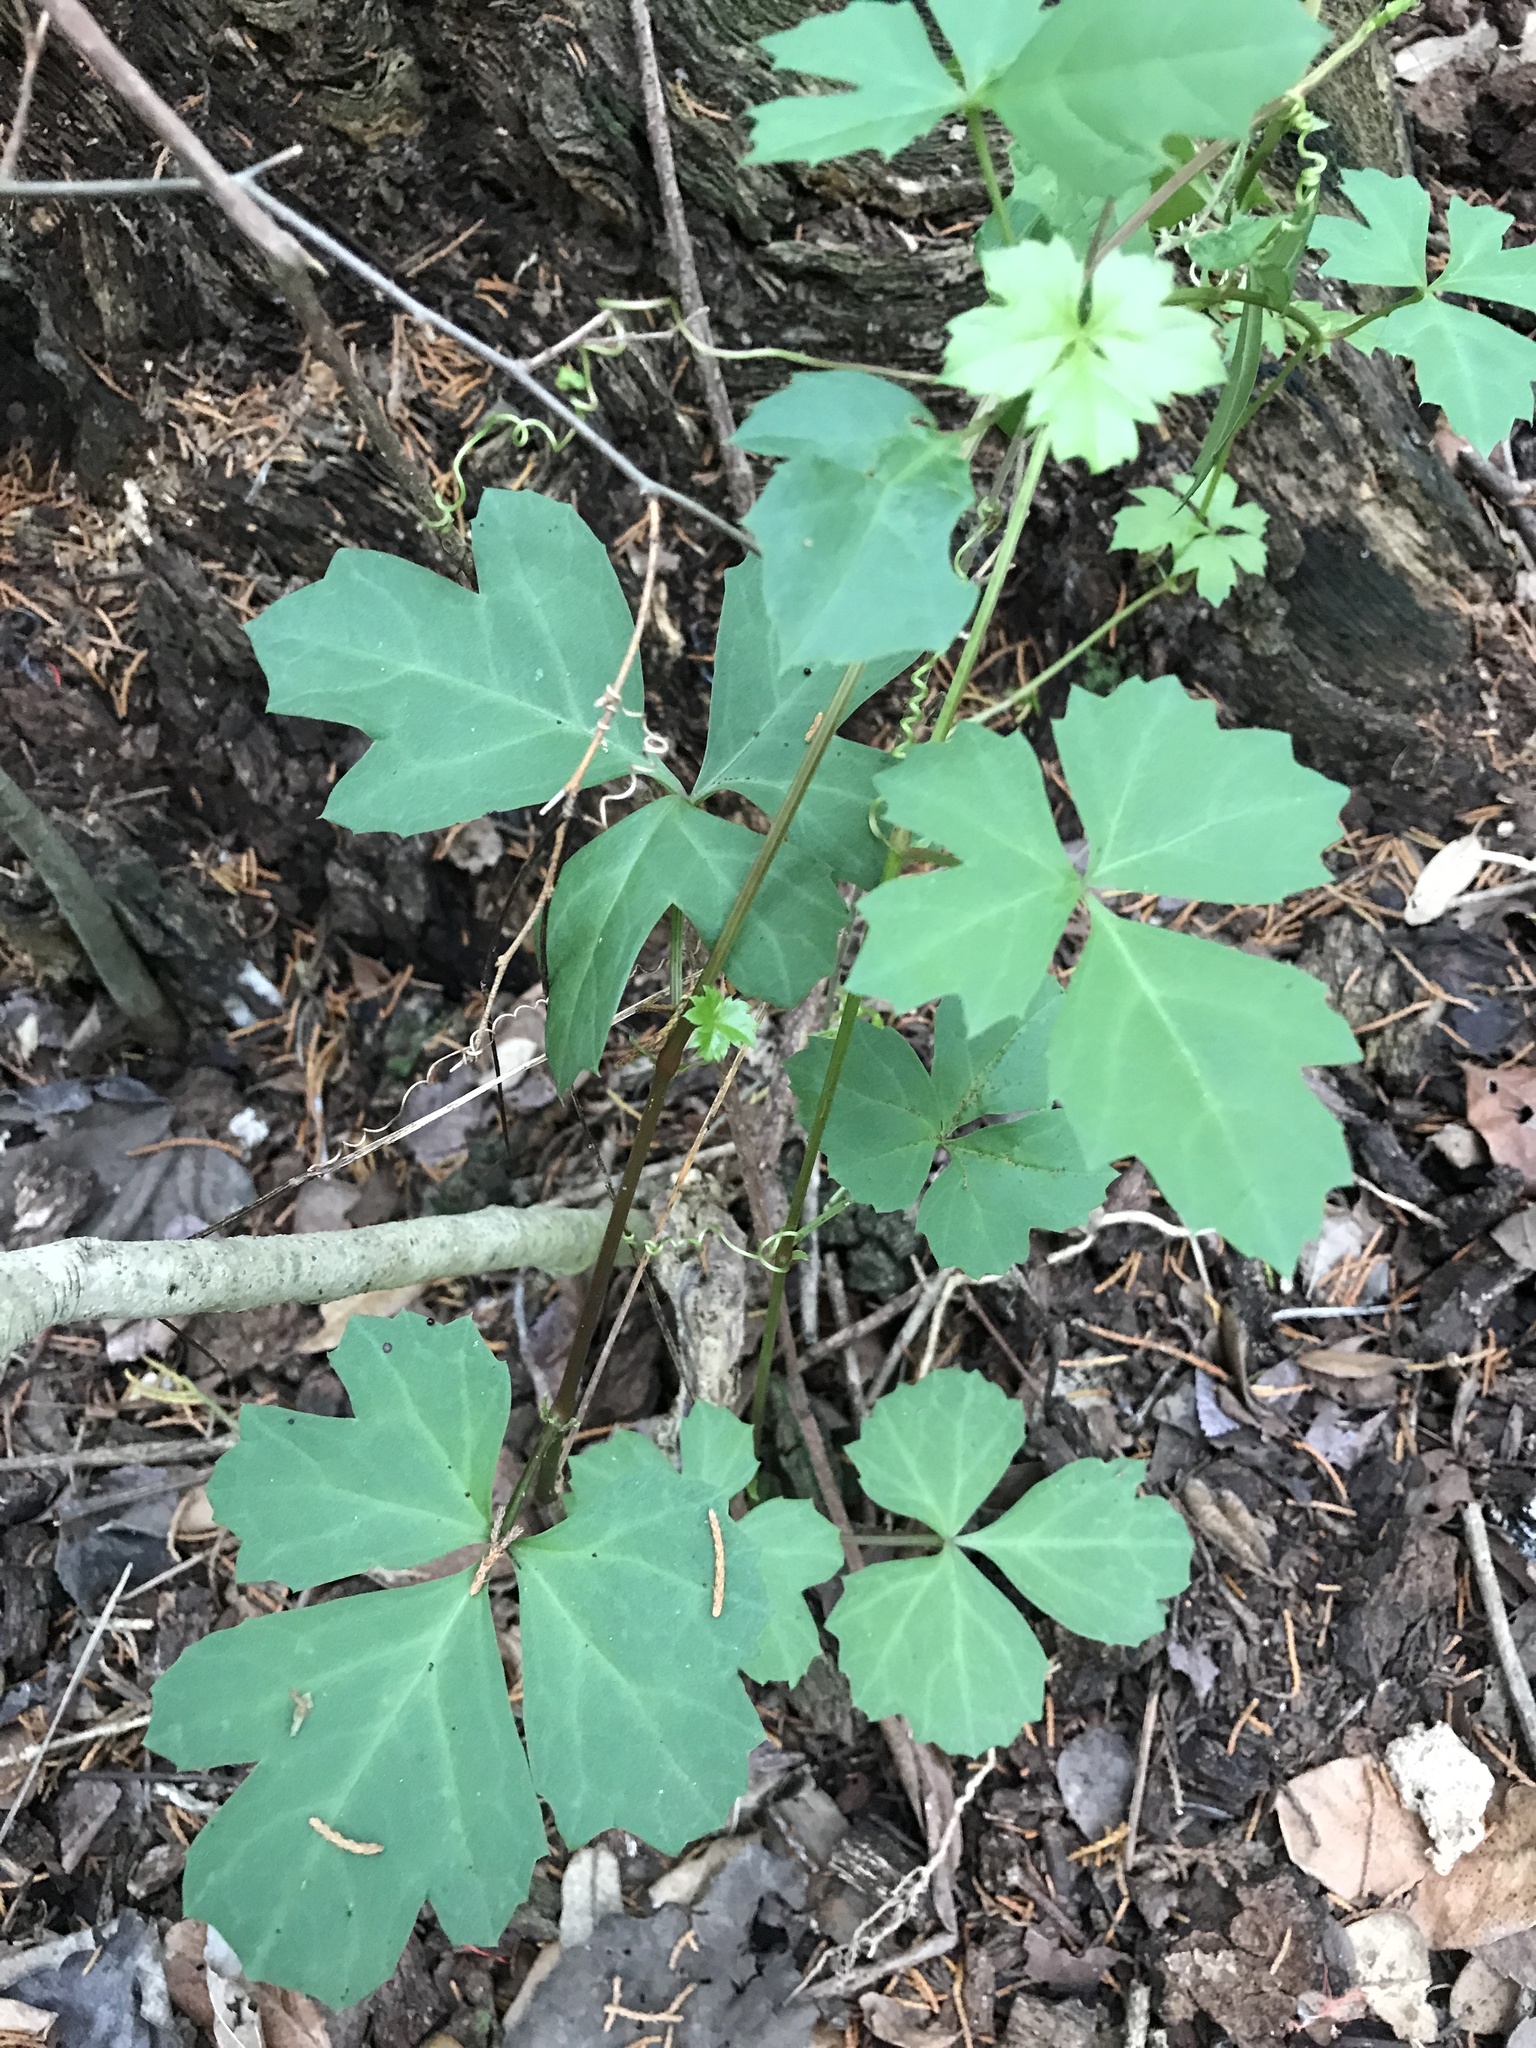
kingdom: Plantae
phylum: Tracheophyta
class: Magnoliopsida
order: Vitales
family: Vitaceae
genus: Cissus
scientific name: Cissus trifoliata
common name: Vine-sorrel
